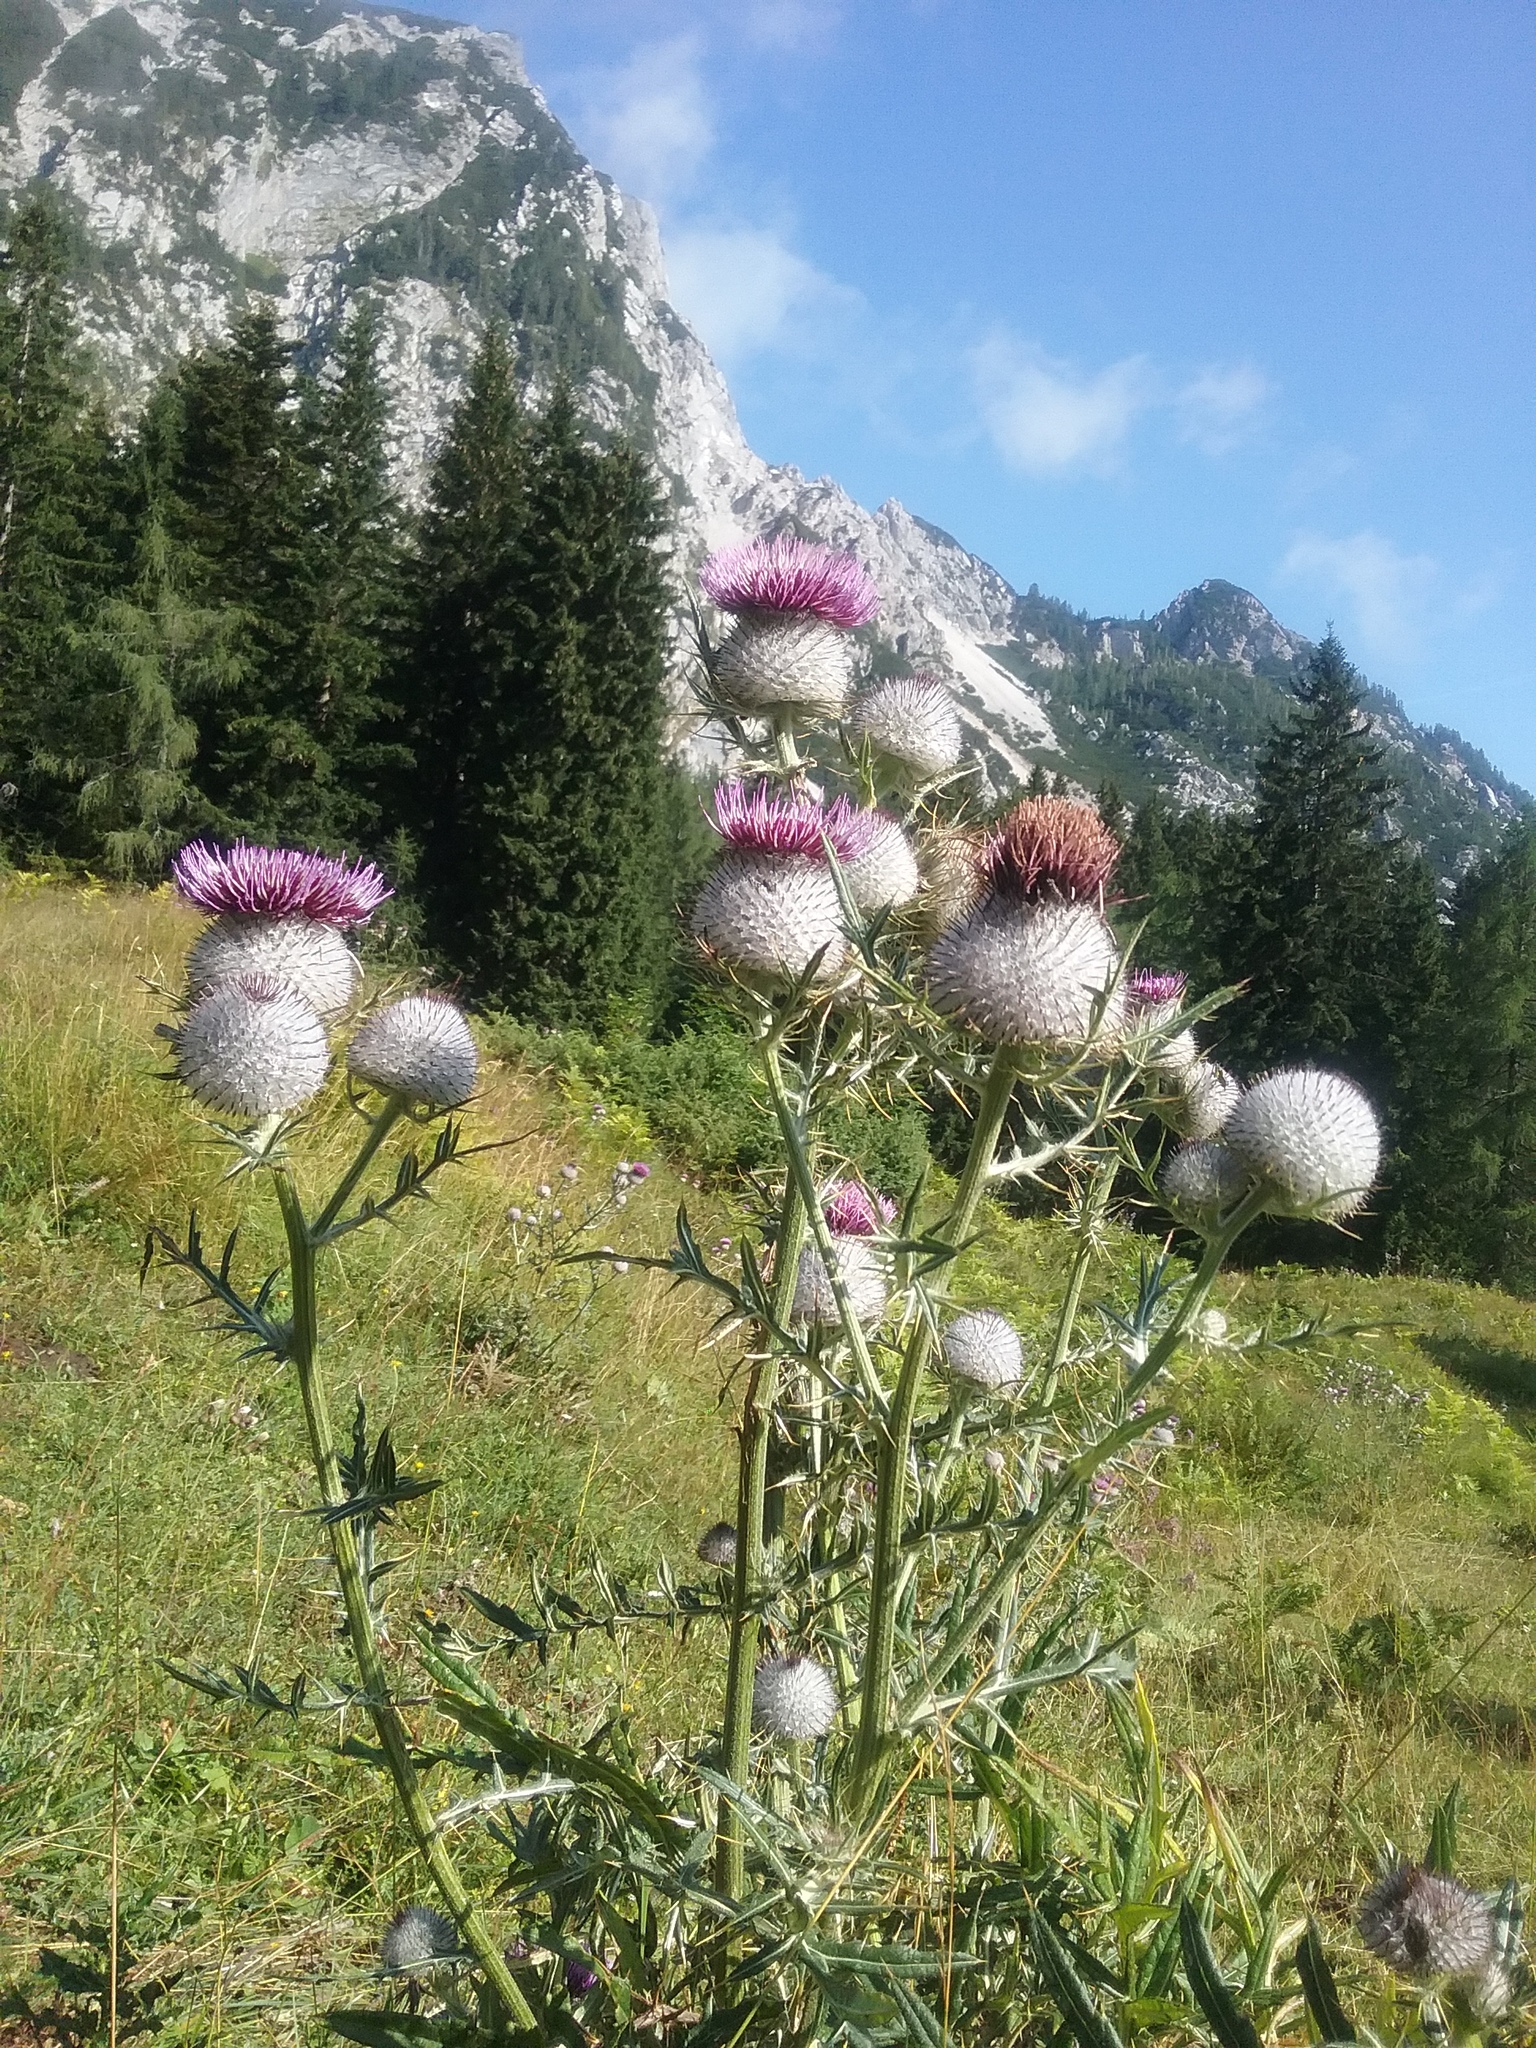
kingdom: Plantae
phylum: Tracheophyta
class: Magnoliopsida
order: Asterales
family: Asteraceae
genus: Lophiolepis
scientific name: Lophiolepis eriophora
